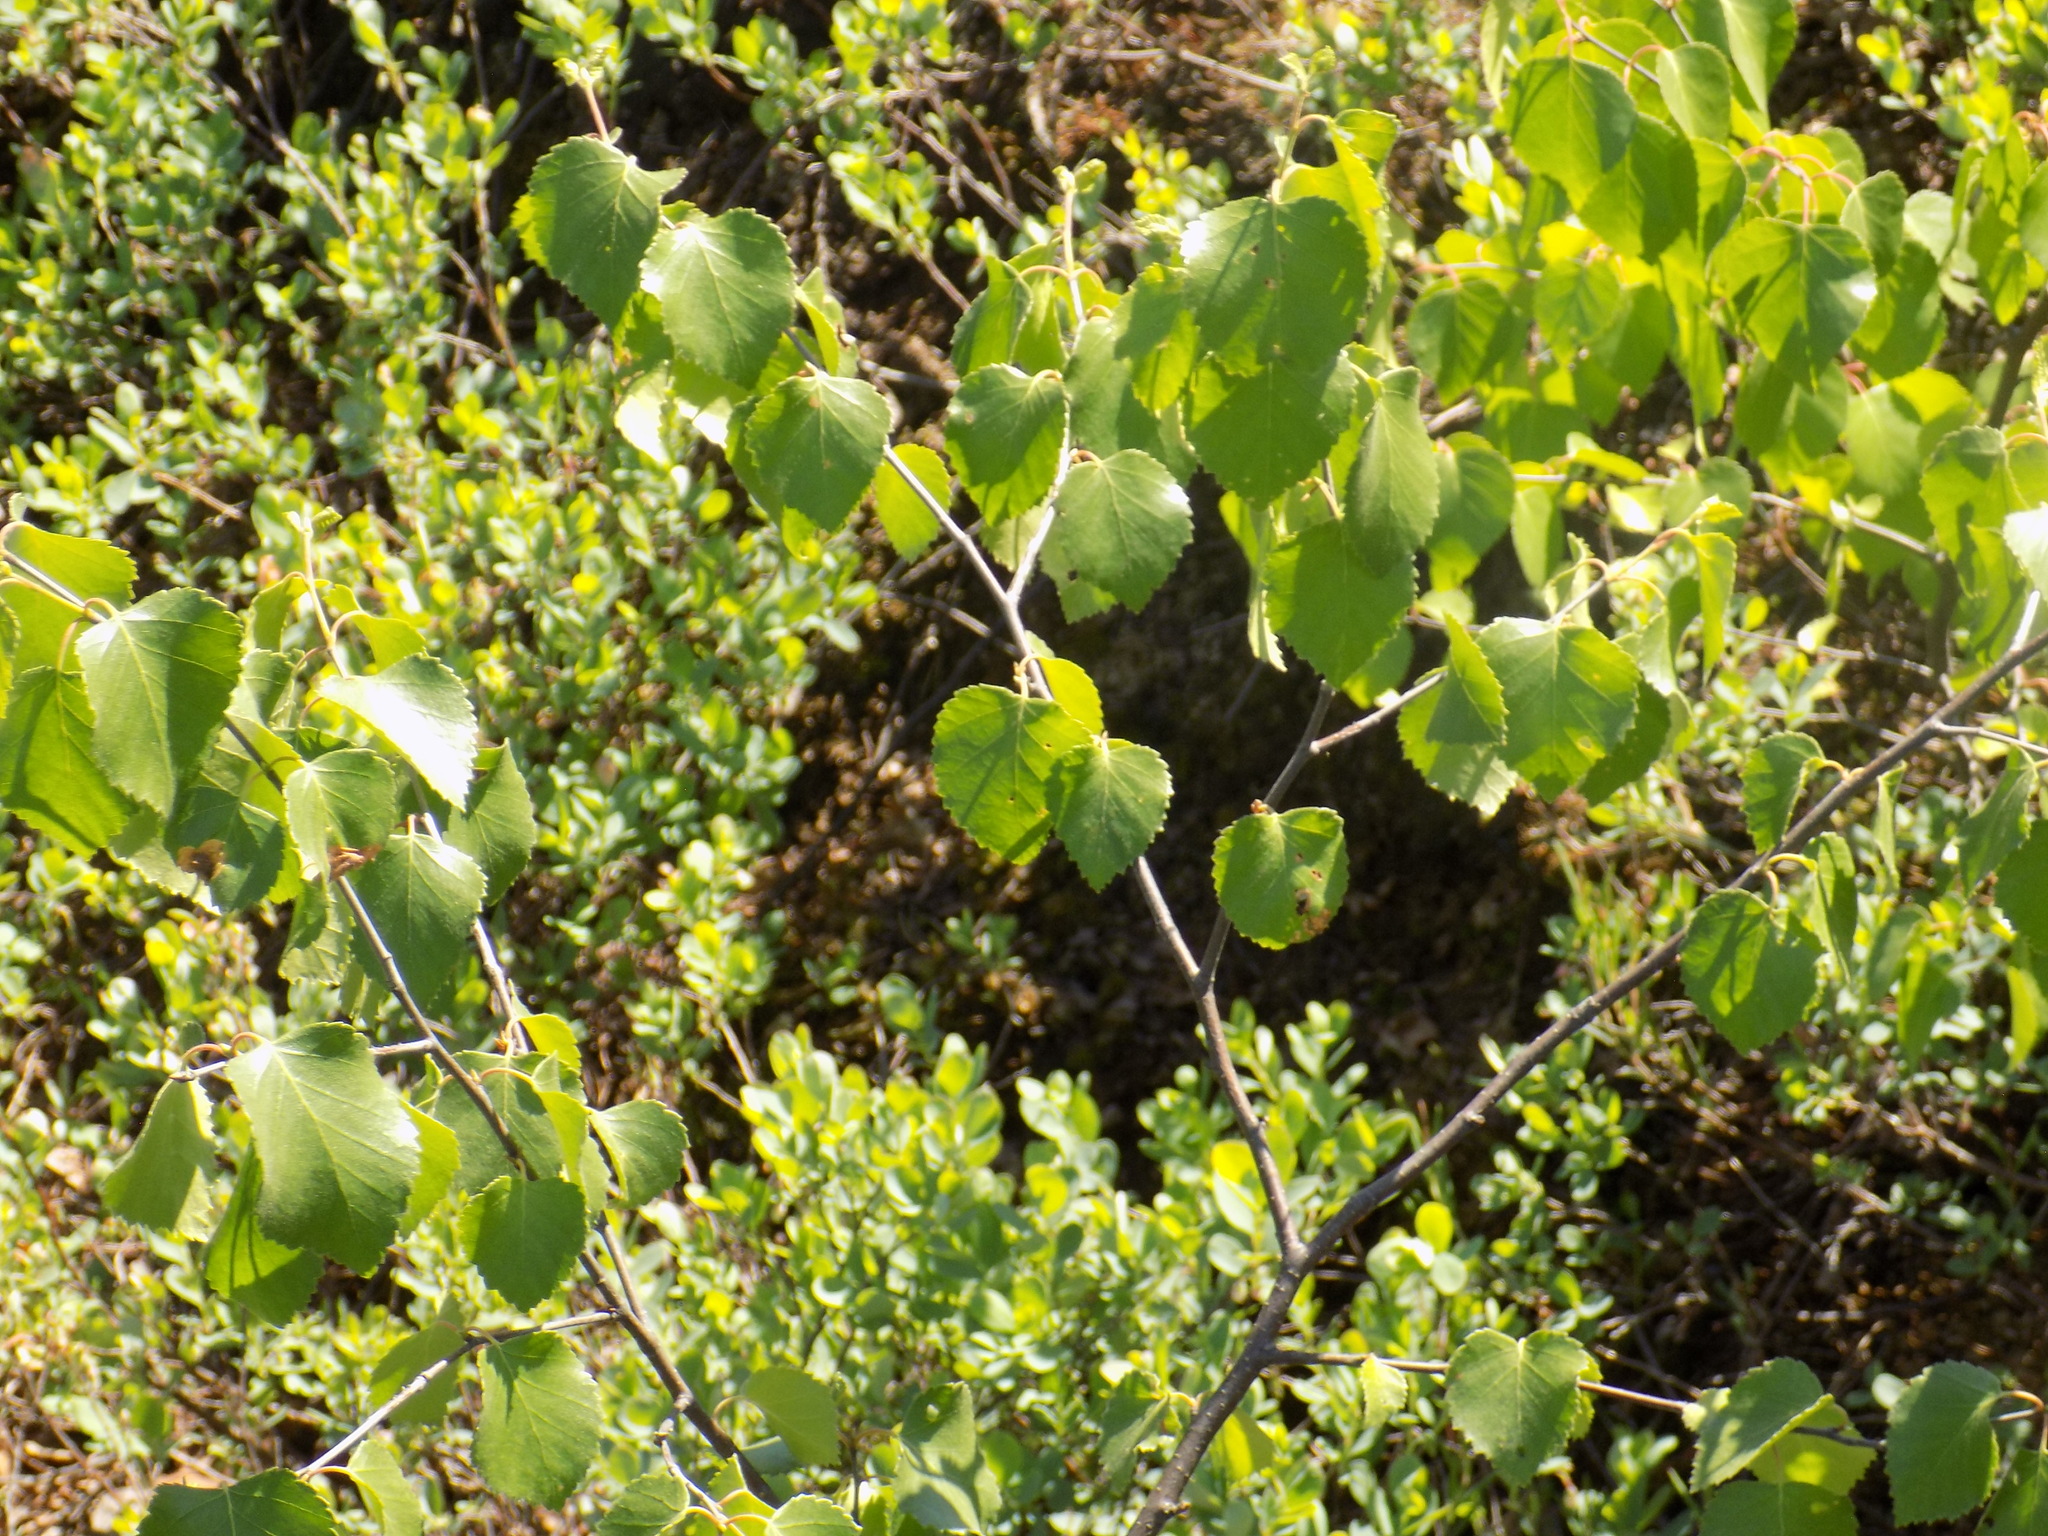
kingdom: Plantae
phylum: Tracheophyta
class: Magnoliopsida
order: Fagales
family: Betulaceae
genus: Betula
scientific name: Betula pubescens
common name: Downy birch
